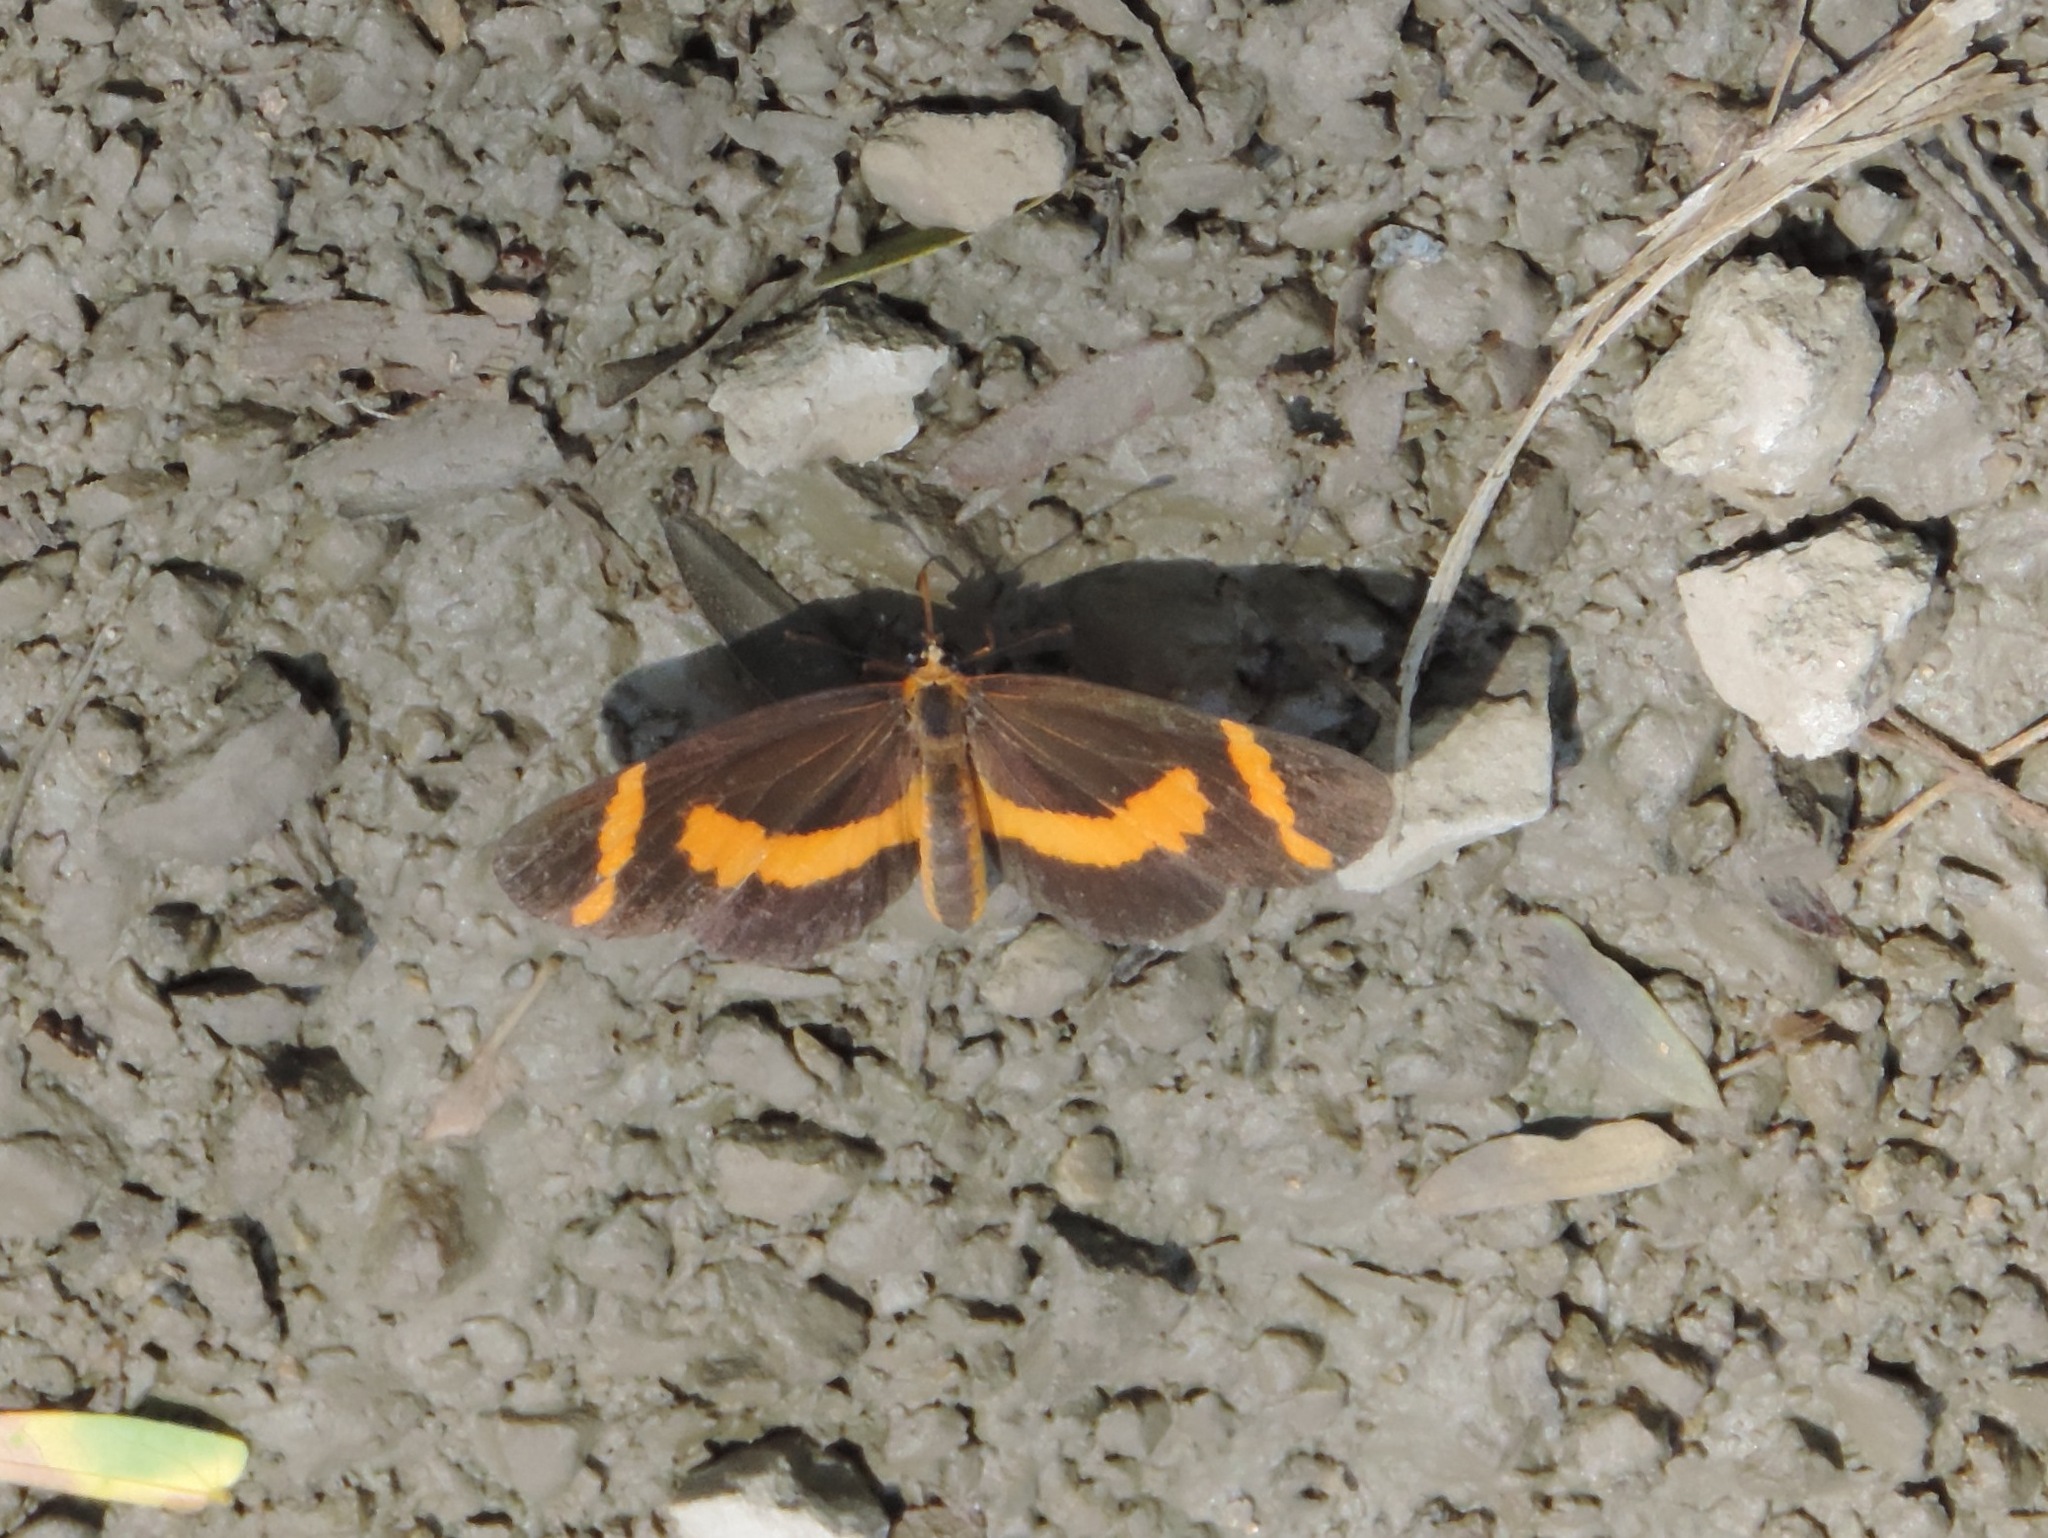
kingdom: Animalia
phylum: Arthropoda
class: Insecta
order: Lepidoptera
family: Nymphalidae
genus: Microtia
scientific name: Microtia elva
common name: Elf
